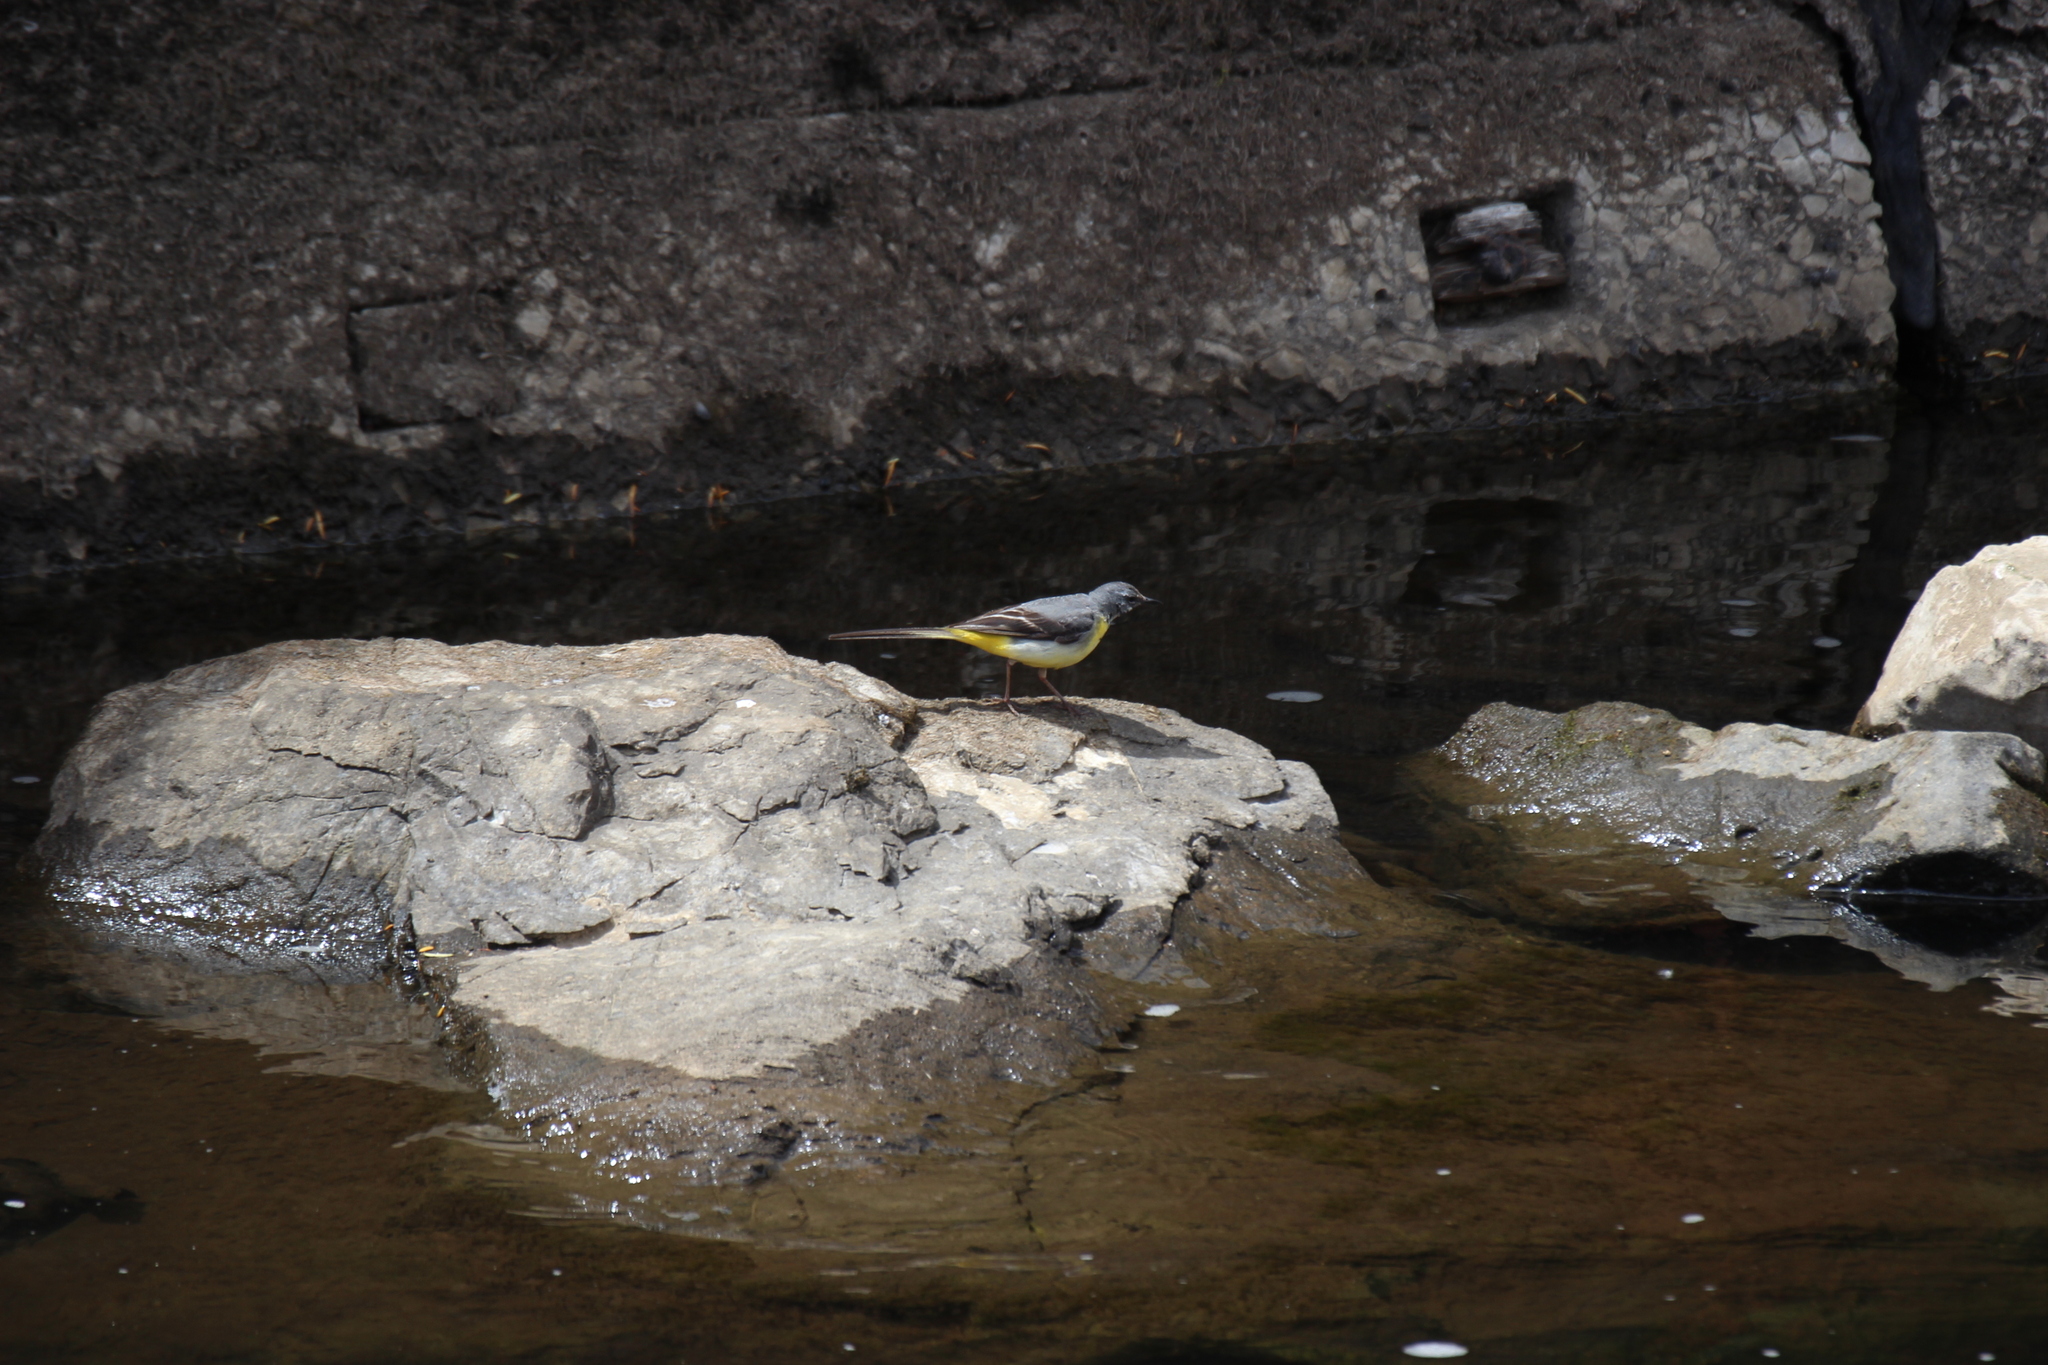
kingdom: Animalia
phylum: Chordata
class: Aves
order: Passeriformes
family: Motacillidae
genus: Motacilla
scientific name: Motacilla cinerea
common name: Grey wagtail
